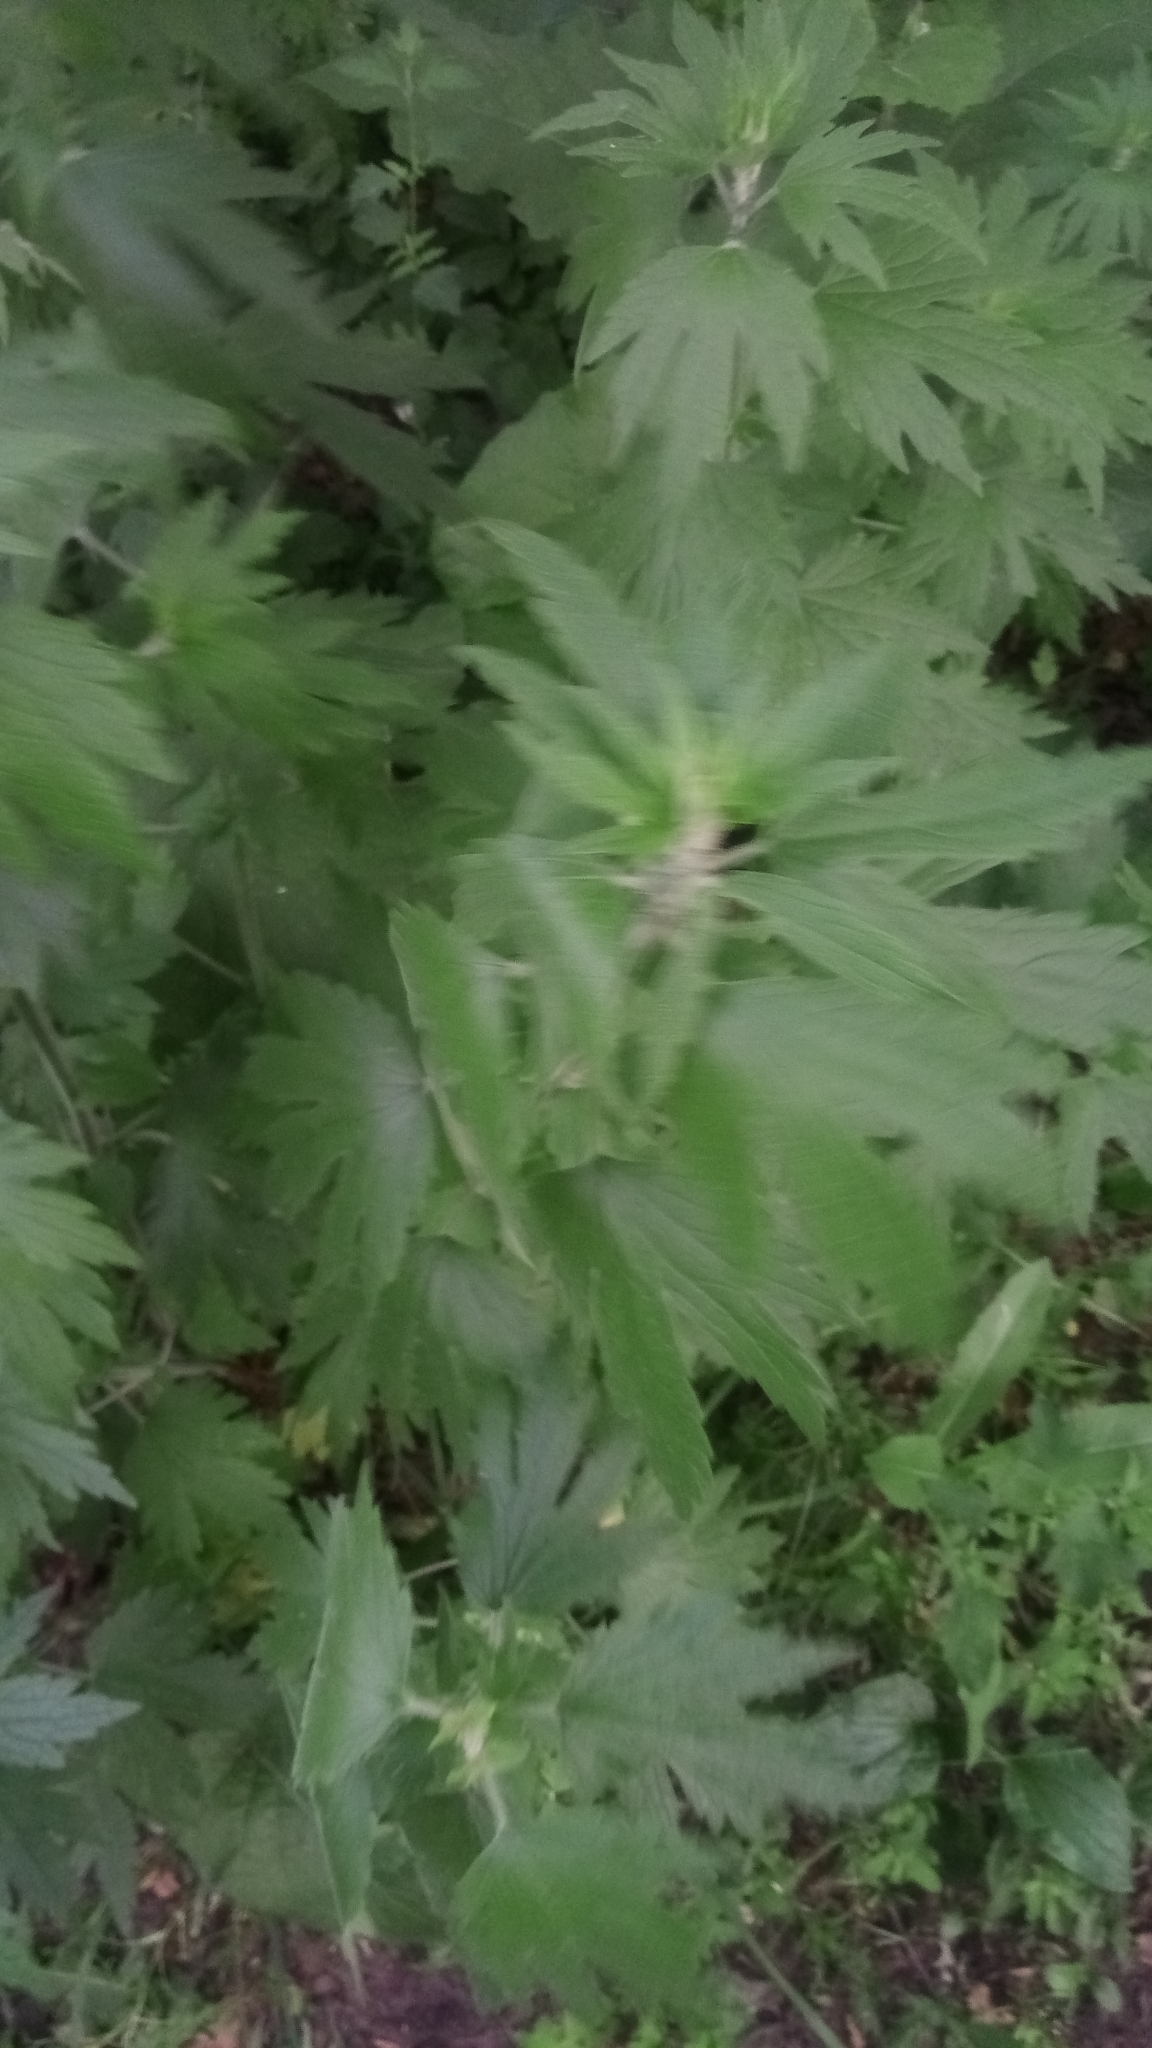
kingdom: Plantae
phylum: Tracheophyta
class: Magnoliopsida
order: Lamiales
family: Lamiaceae
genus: Leonurus
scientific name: Leonurus quinquelobatus
